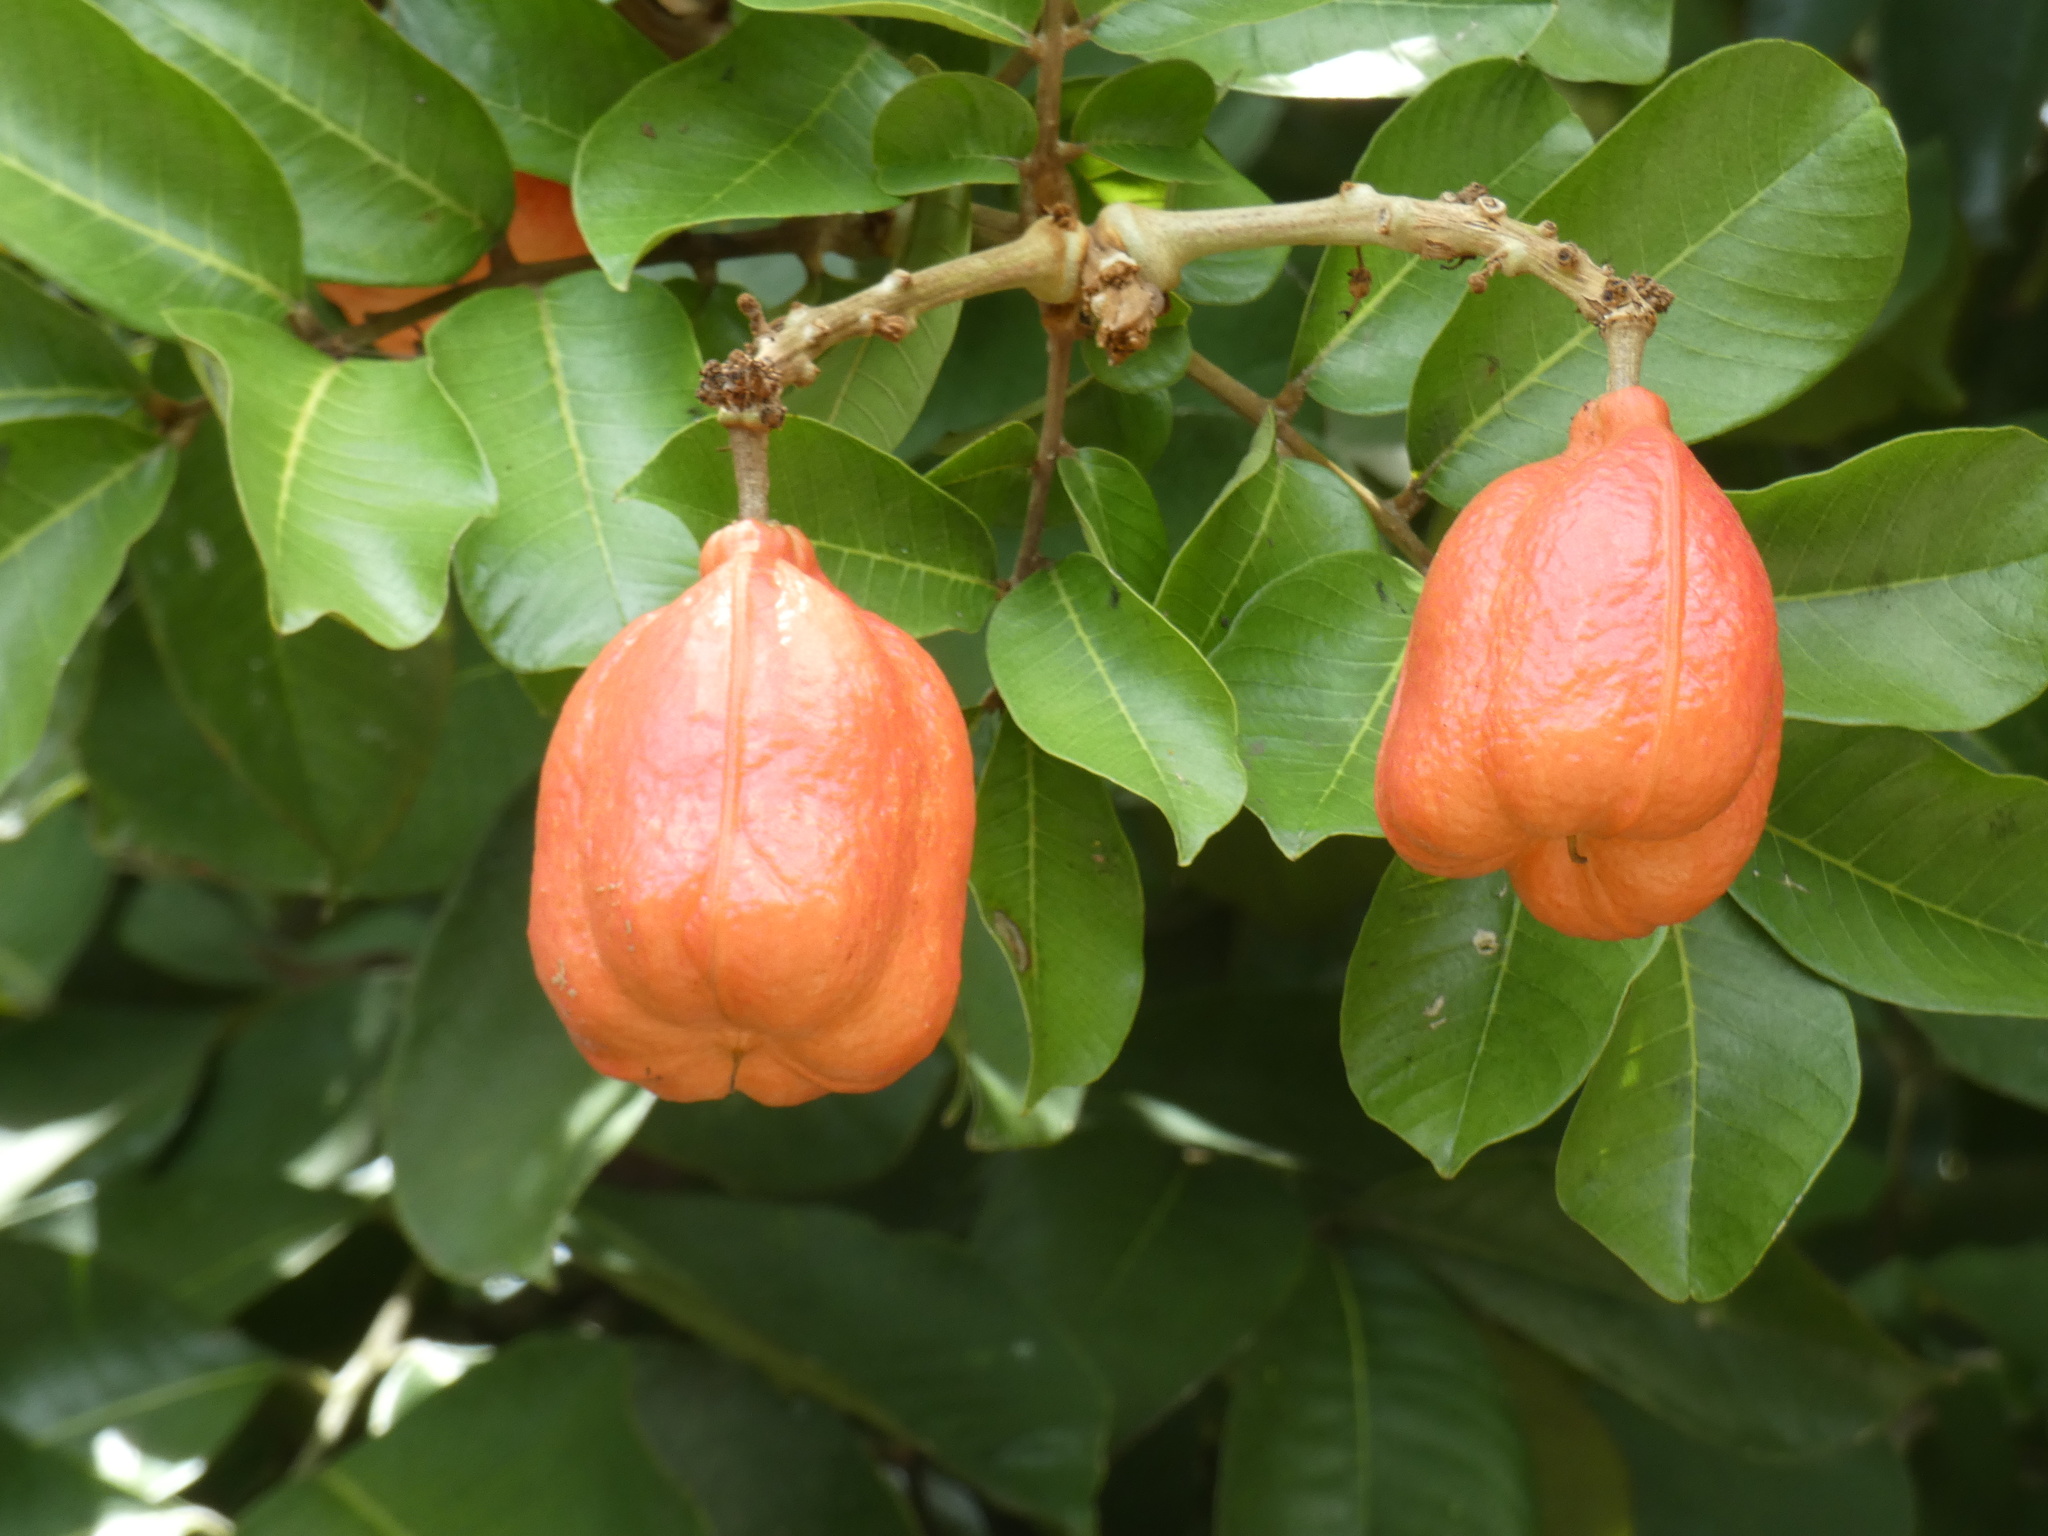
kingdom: Plantae
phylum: Tracheophyta
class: Magnoliopsida
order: Sapindales
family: Sapindaceae
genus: Blighia
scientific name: Blighia sapida
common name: Akee
